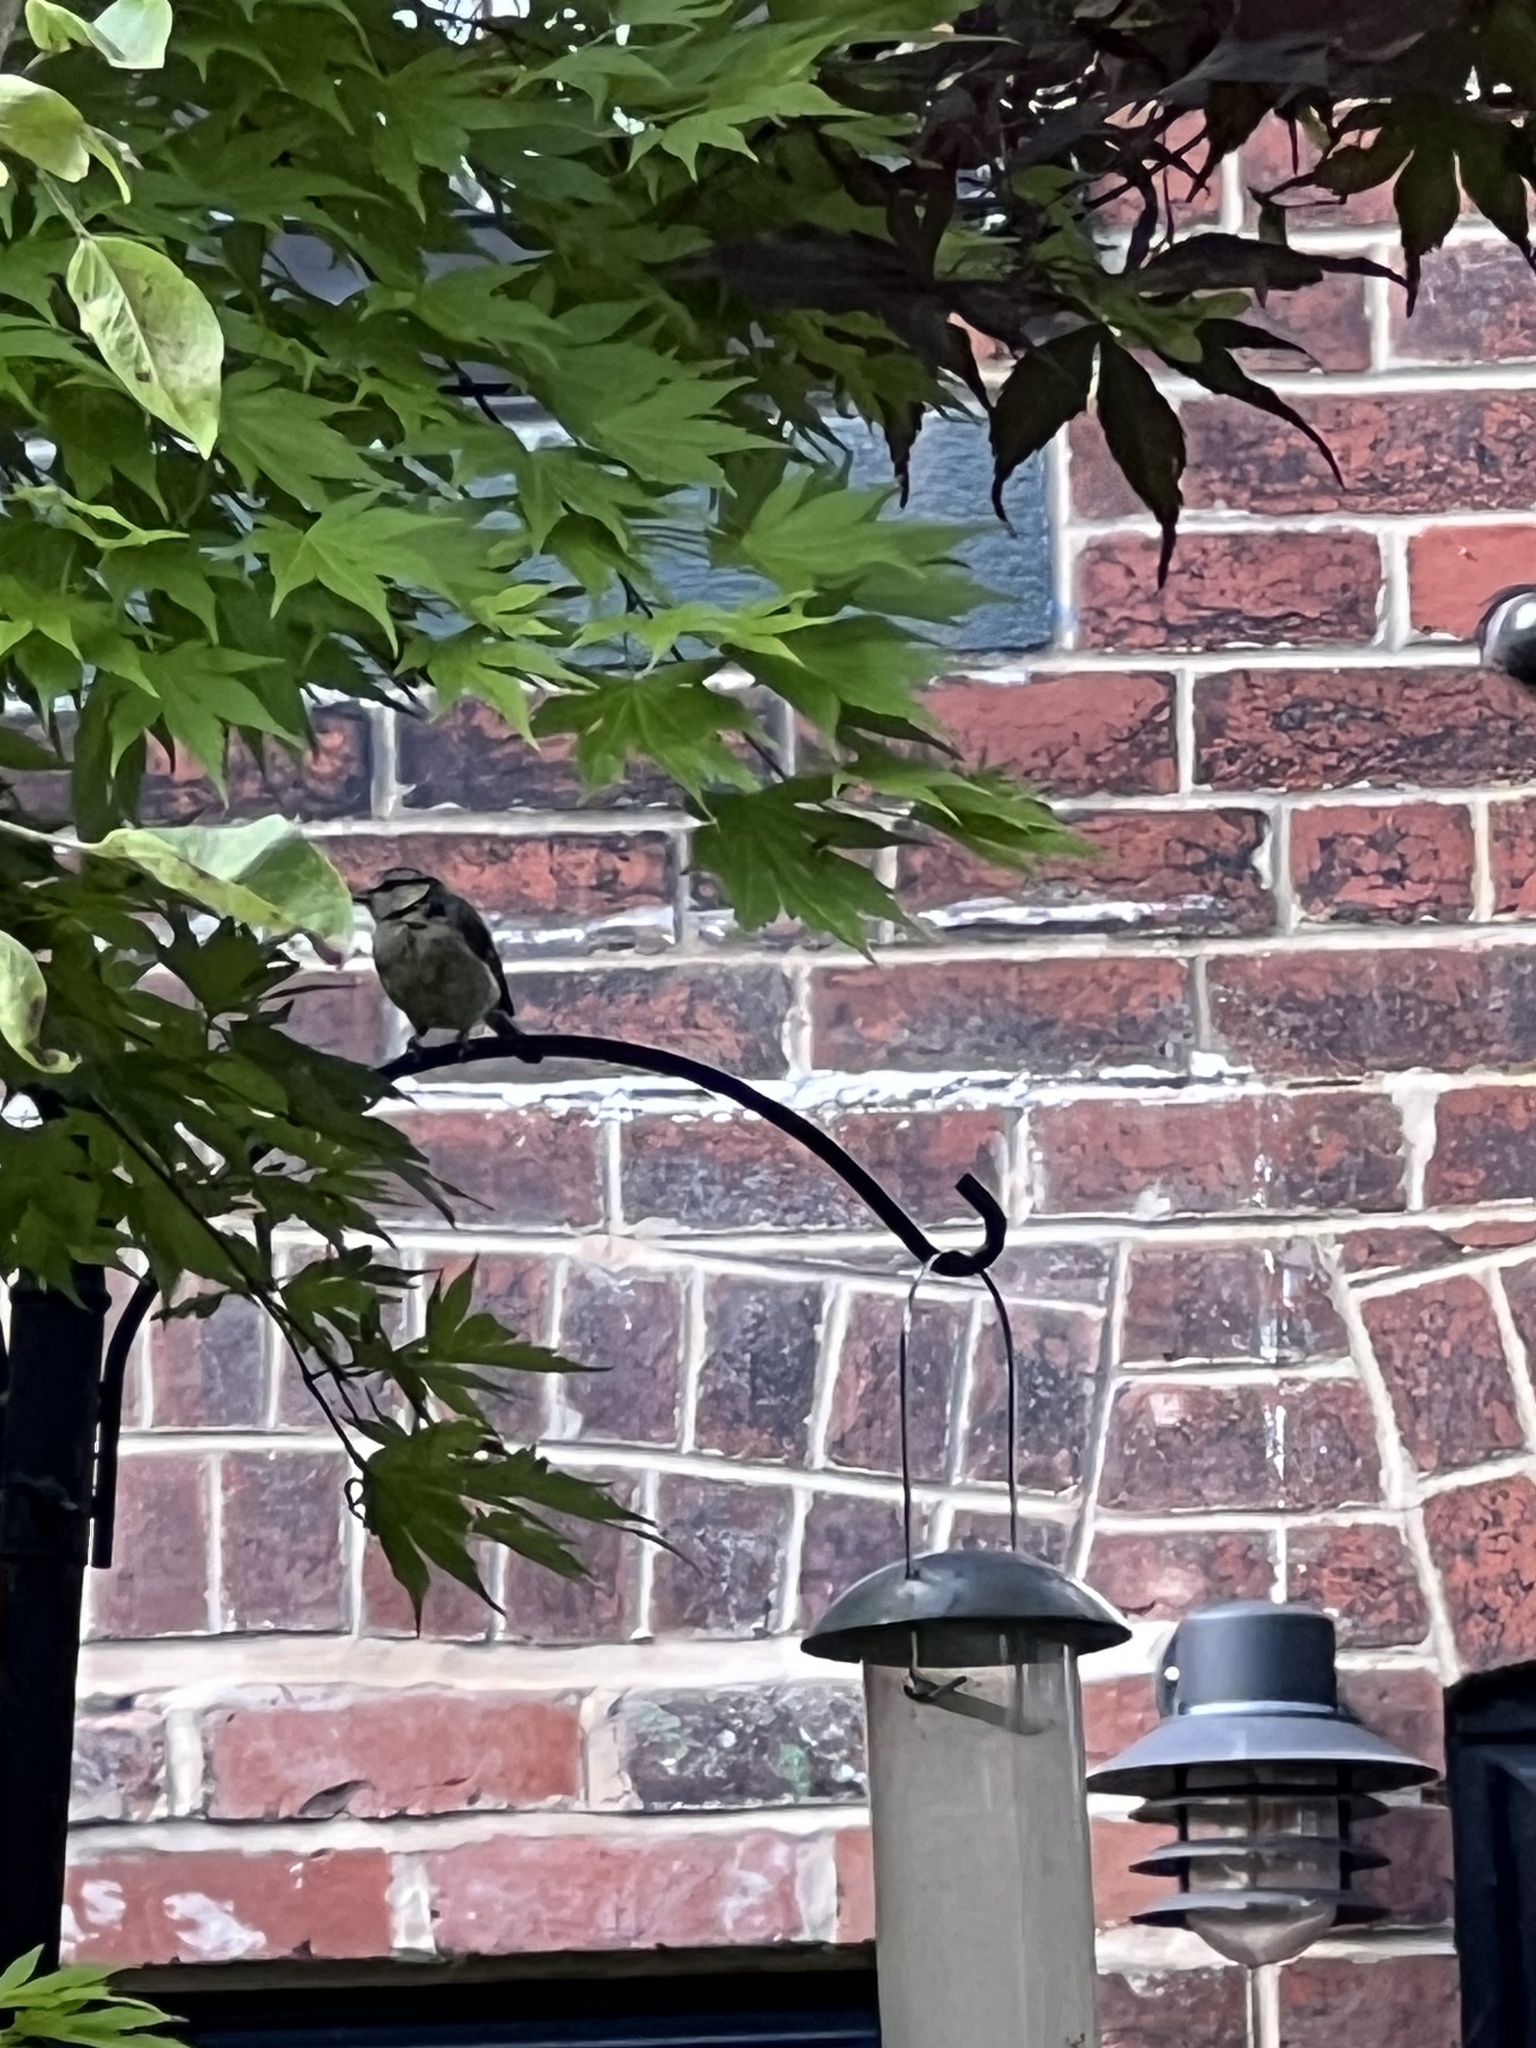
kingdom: Animalia
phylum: Chordata
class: Aves
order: Passeriformes
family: Paridae
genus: Cyanistes
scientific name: Cyanistes caeruleus
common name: Eurasian blue tit
